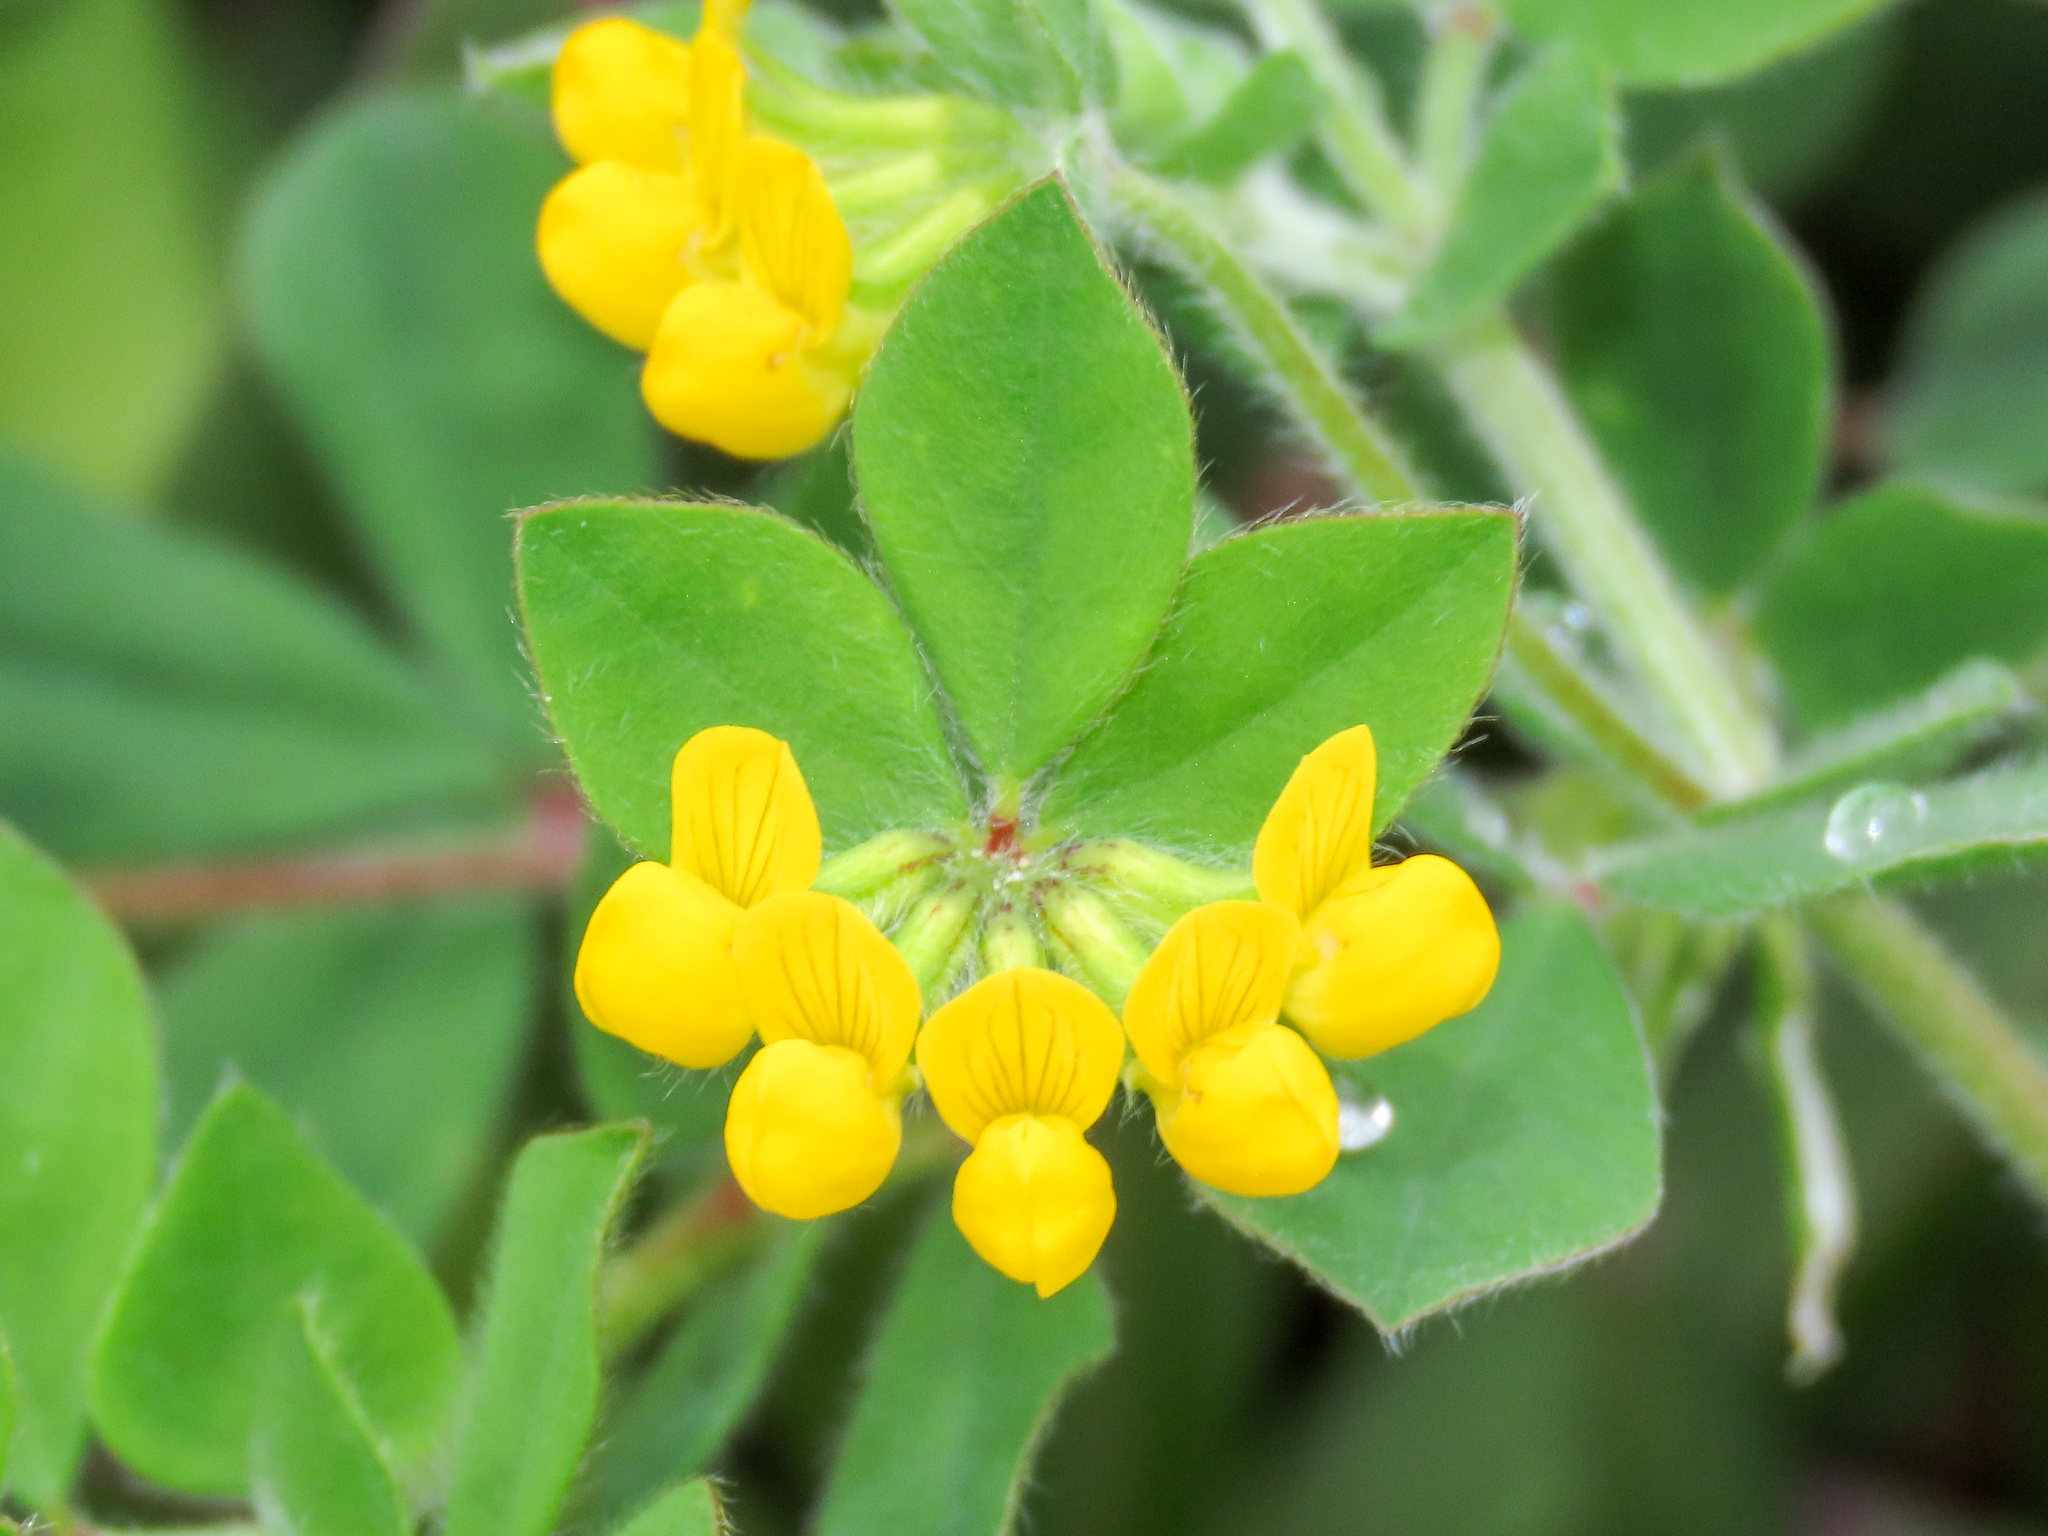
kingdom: Plantae
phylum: Tracheophyta
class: Magnoliopsida
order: Fabales
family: Fabaceae
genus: Lotus
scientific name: Lotus ornithopodioides
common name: Southern bird's-foot trefoil
